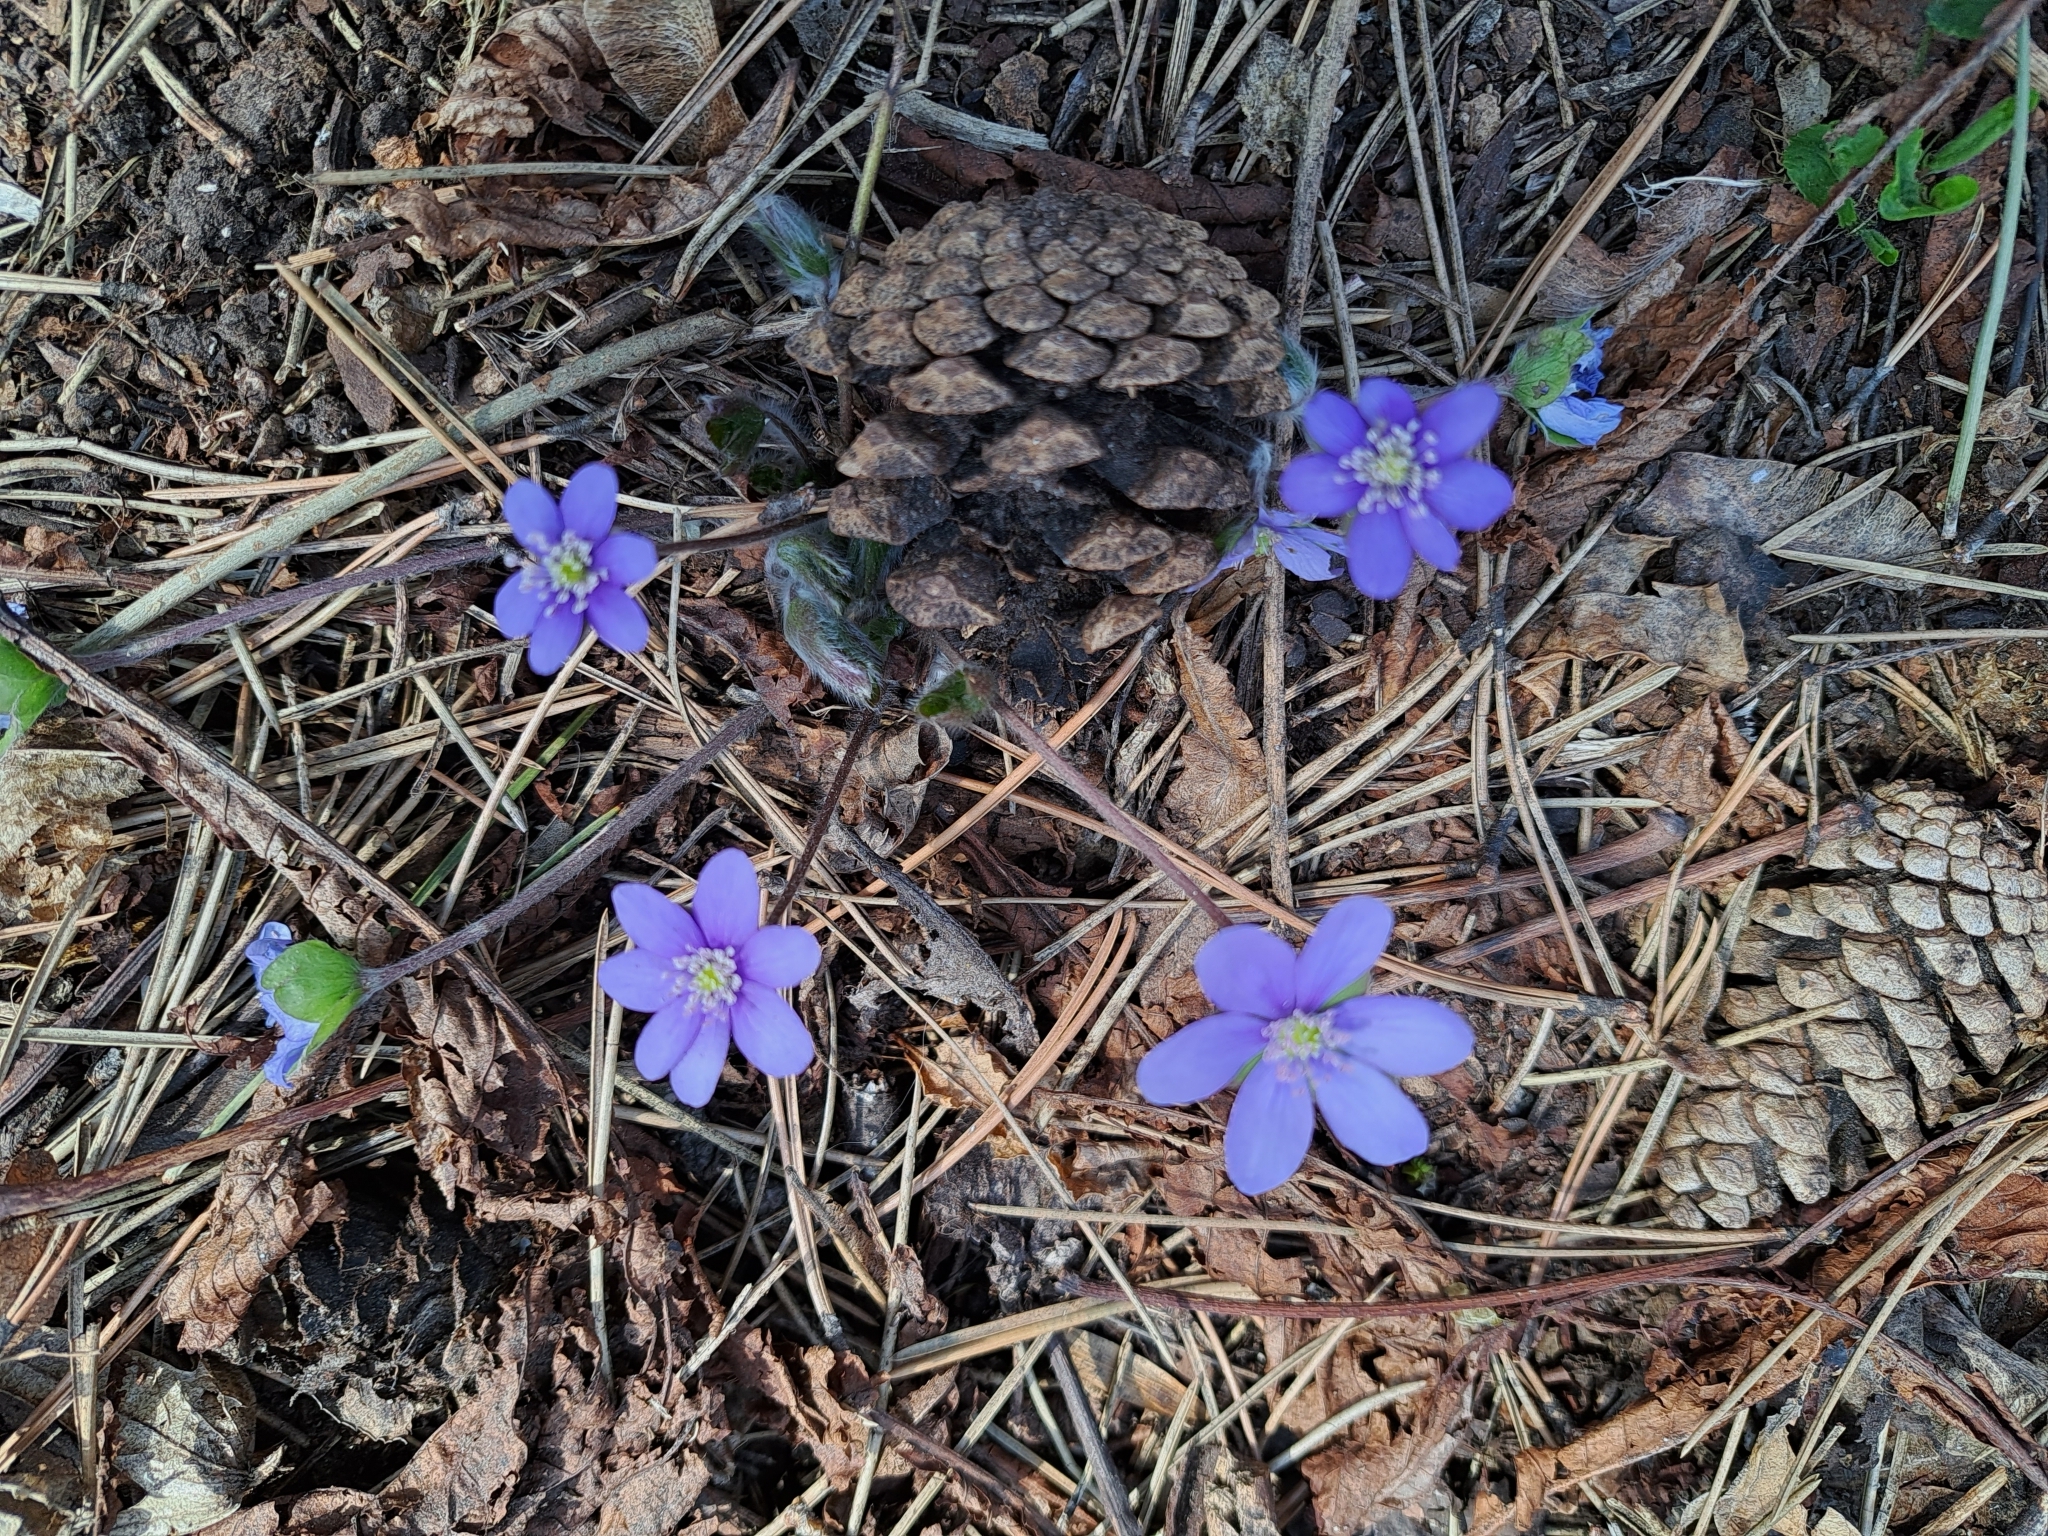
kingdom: Plantae
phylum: Tracheophyta
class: Magnoliopsida
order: Ranunculales
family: Ranunculaceae
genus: Hepatica
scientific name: Hepatica nobilis
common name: Liverleaf
